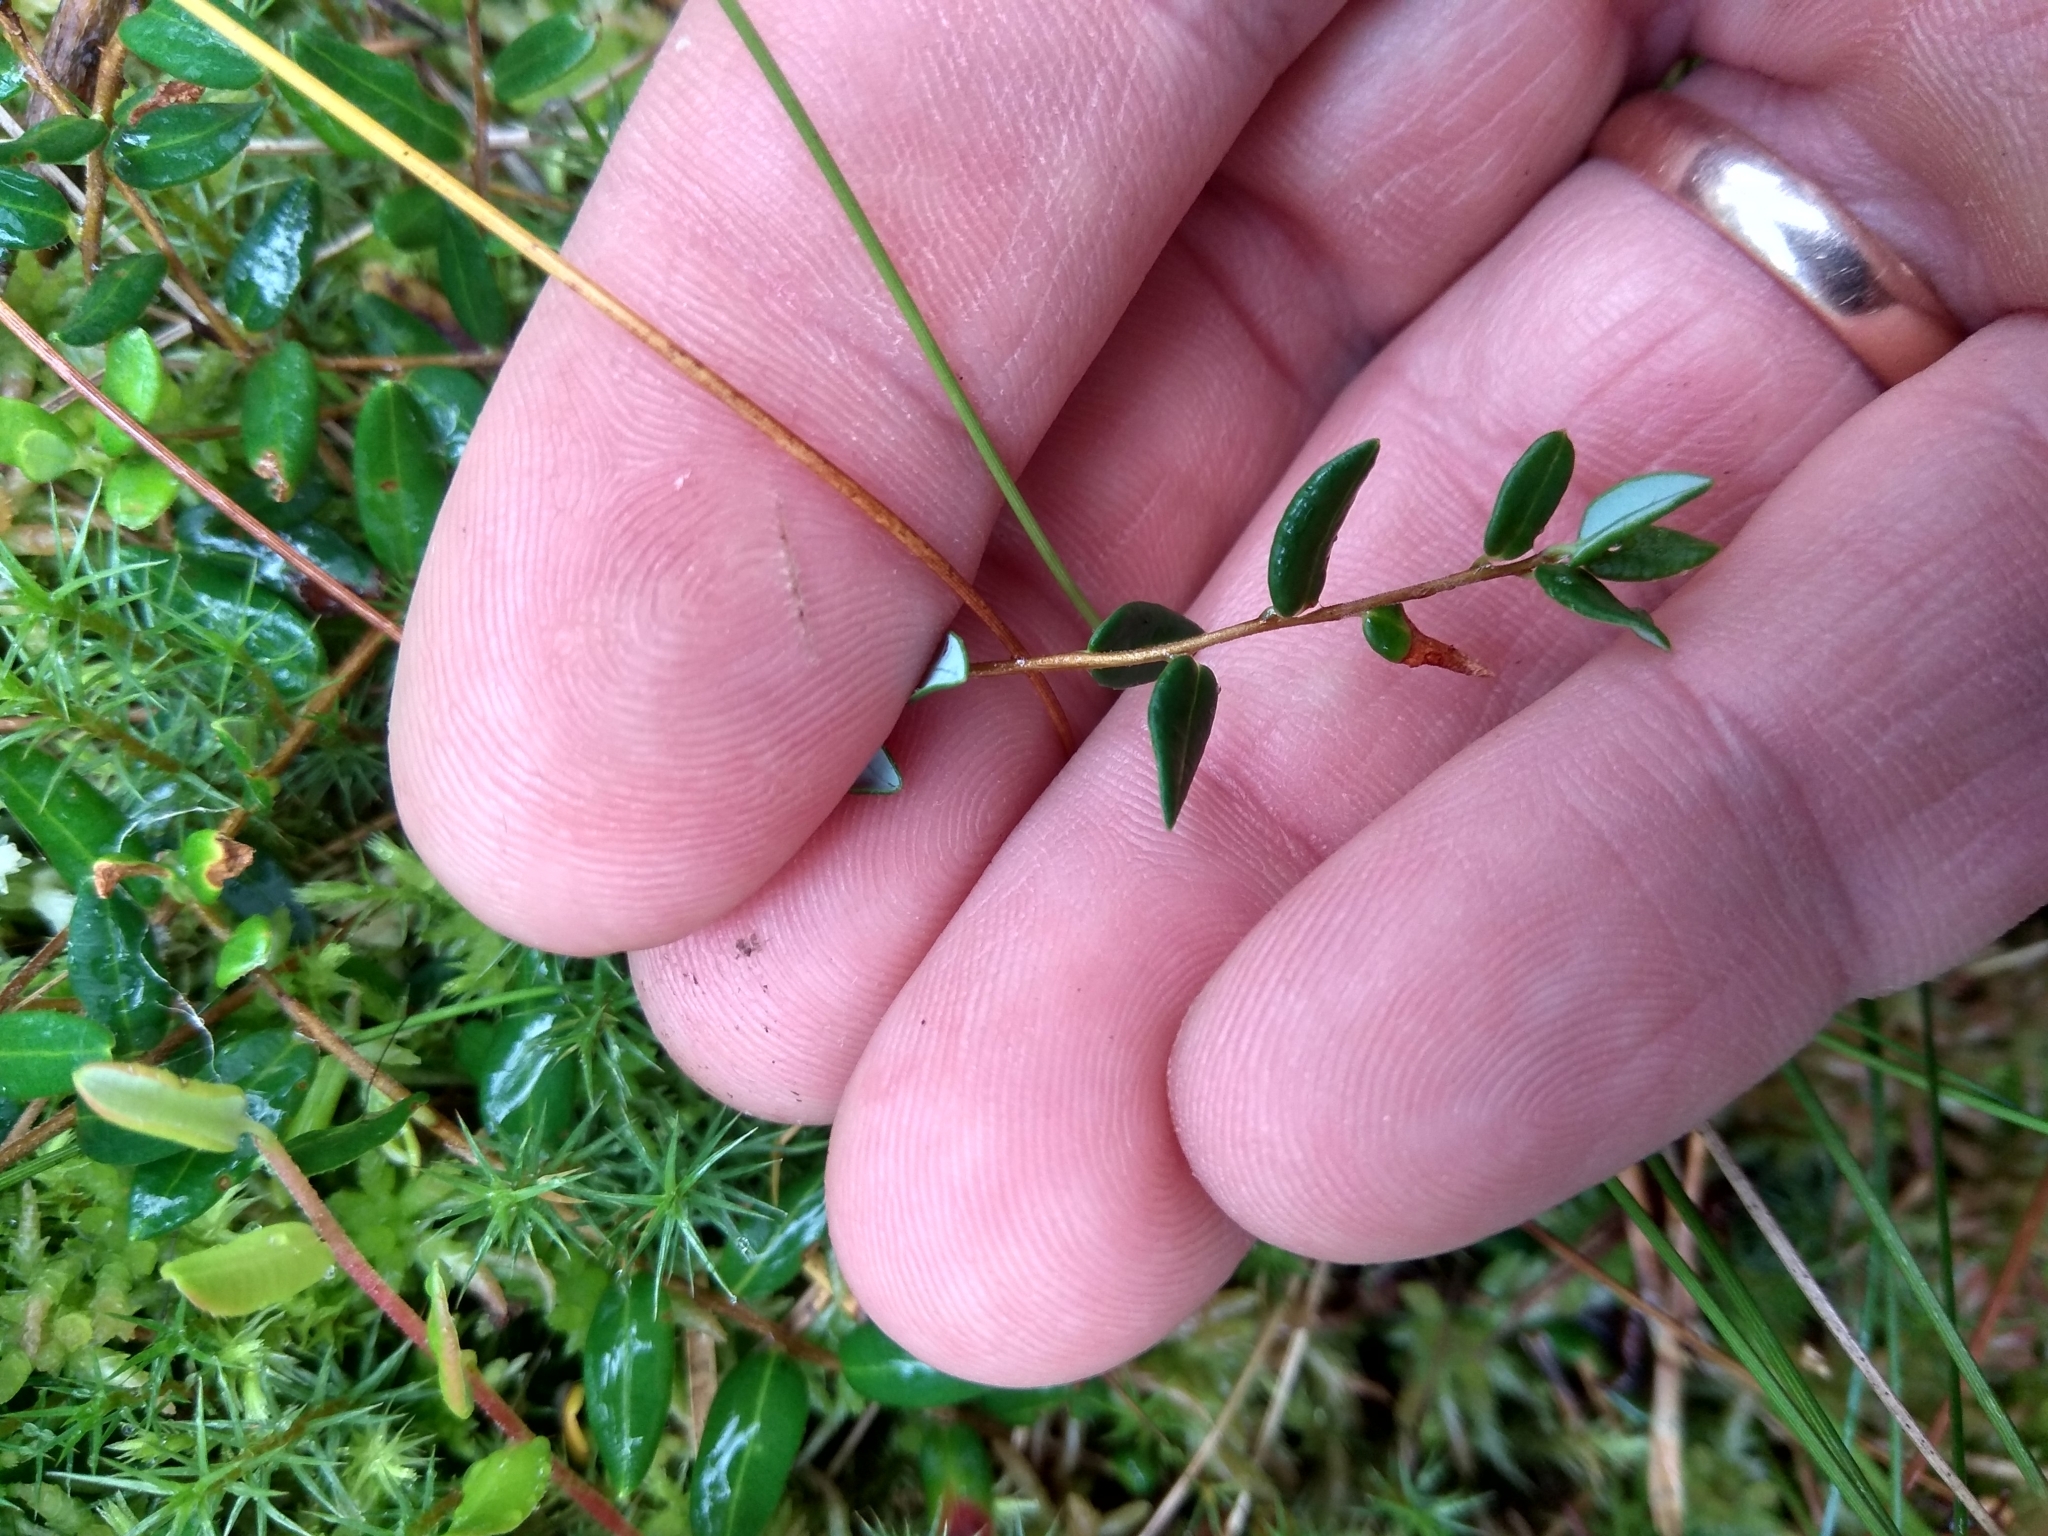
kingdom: Plantae
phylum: Tracheophyta
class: Magnoliopsida
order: Ericales
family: Ericaceae
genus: Vaccinium
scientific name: Vaccinium oxycoccos
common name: Cranberry
